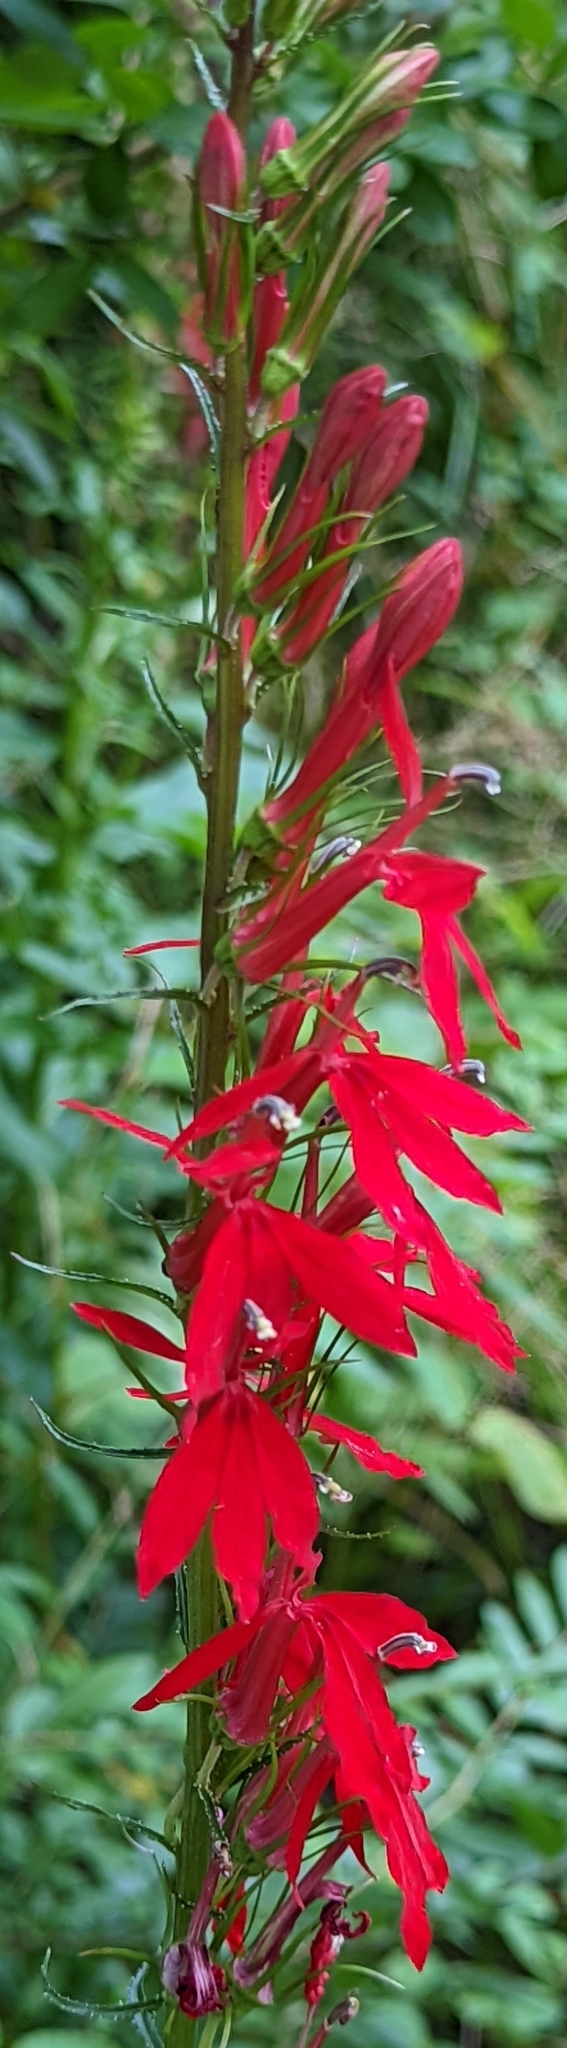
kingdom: Plantae
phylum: Tracheophyta
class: Magnoliopsida
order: Asterales
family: Campanulaceae
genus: Lobelia
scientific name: Lobelia cardinalis
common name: Cardinal flower
